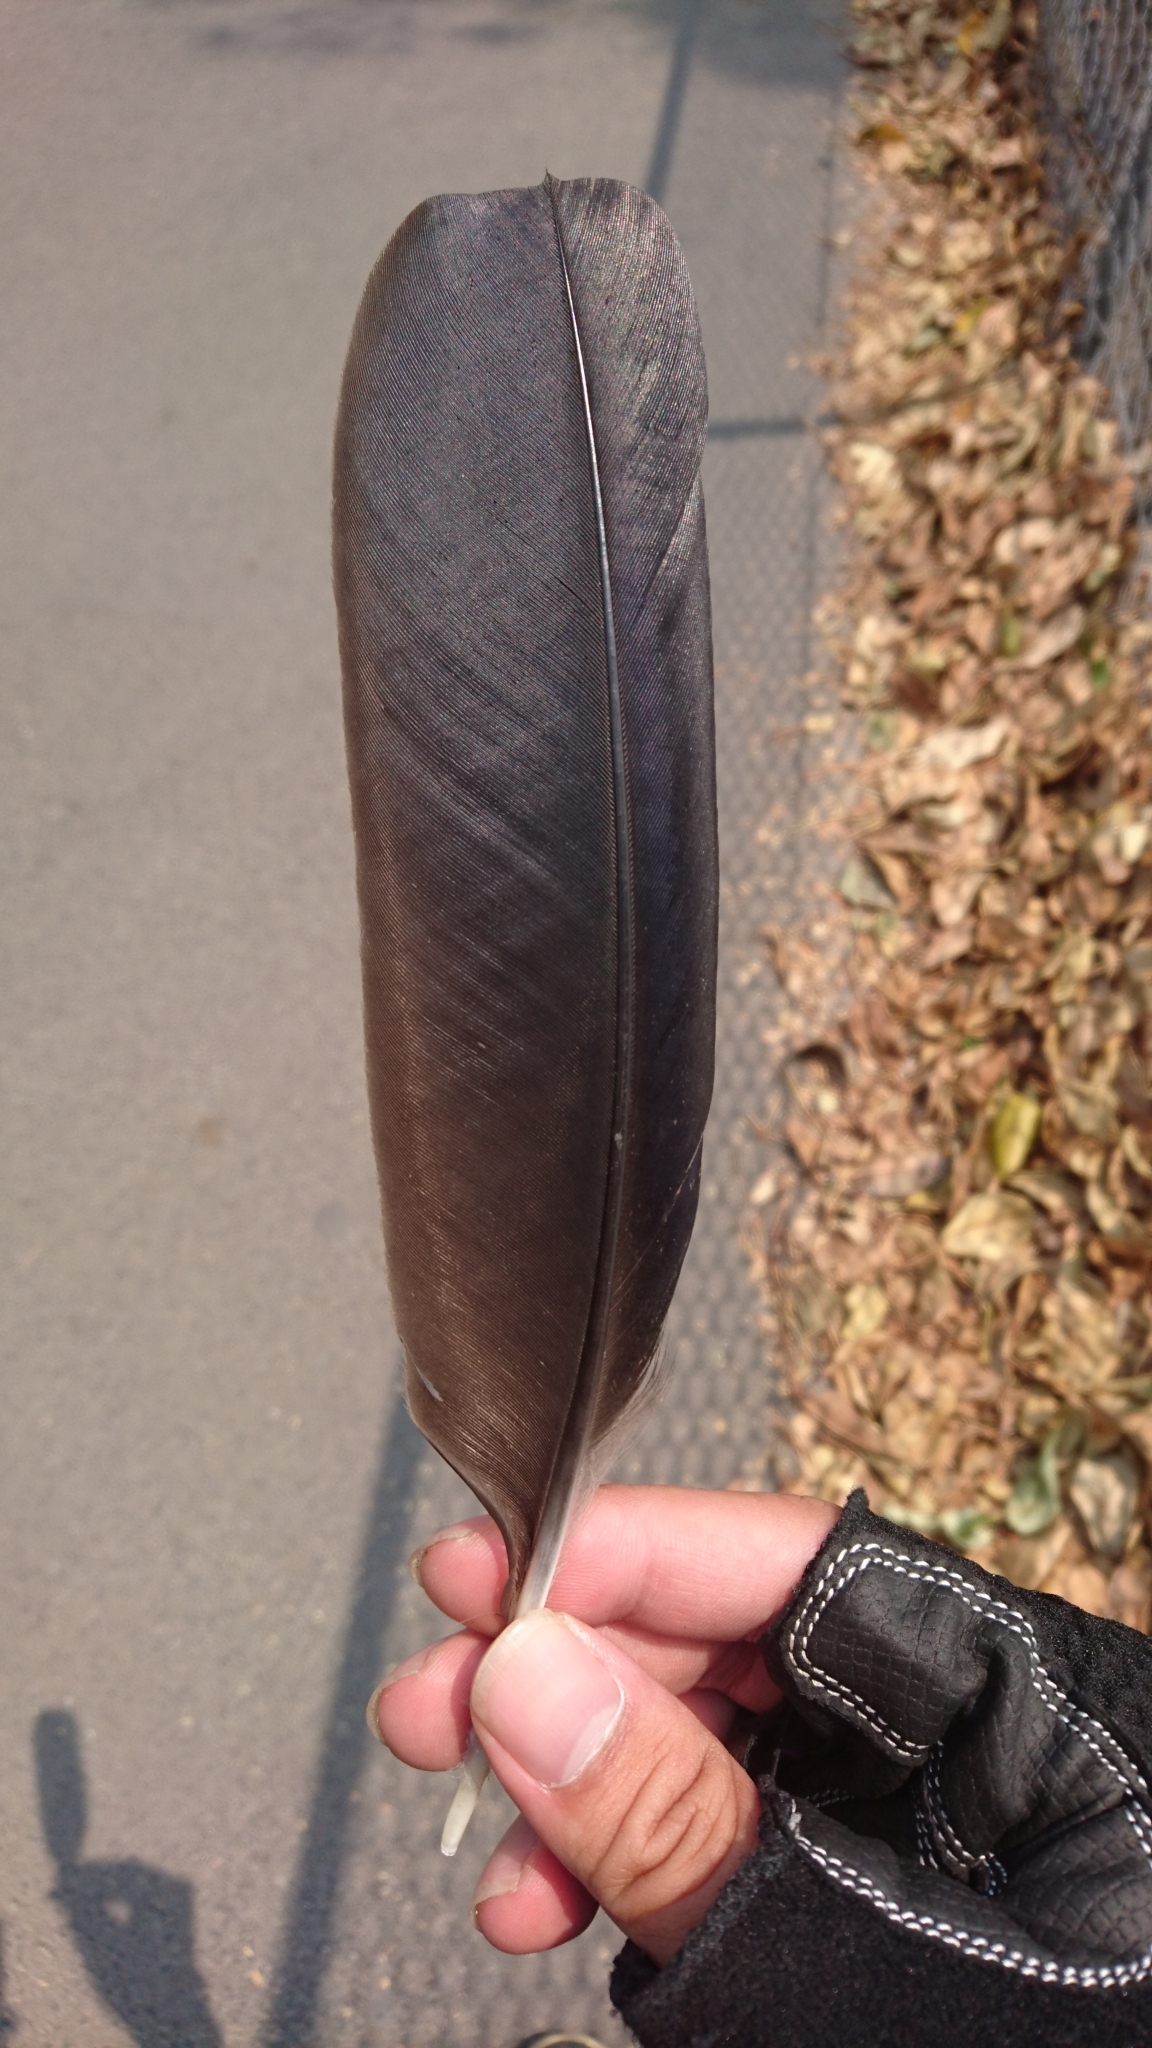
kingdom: Animalia
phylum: Chordata
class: Aves
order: Passeriformes
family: Corvidae
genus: Corvus
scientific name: Corvus coronoides
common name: Australian raven
